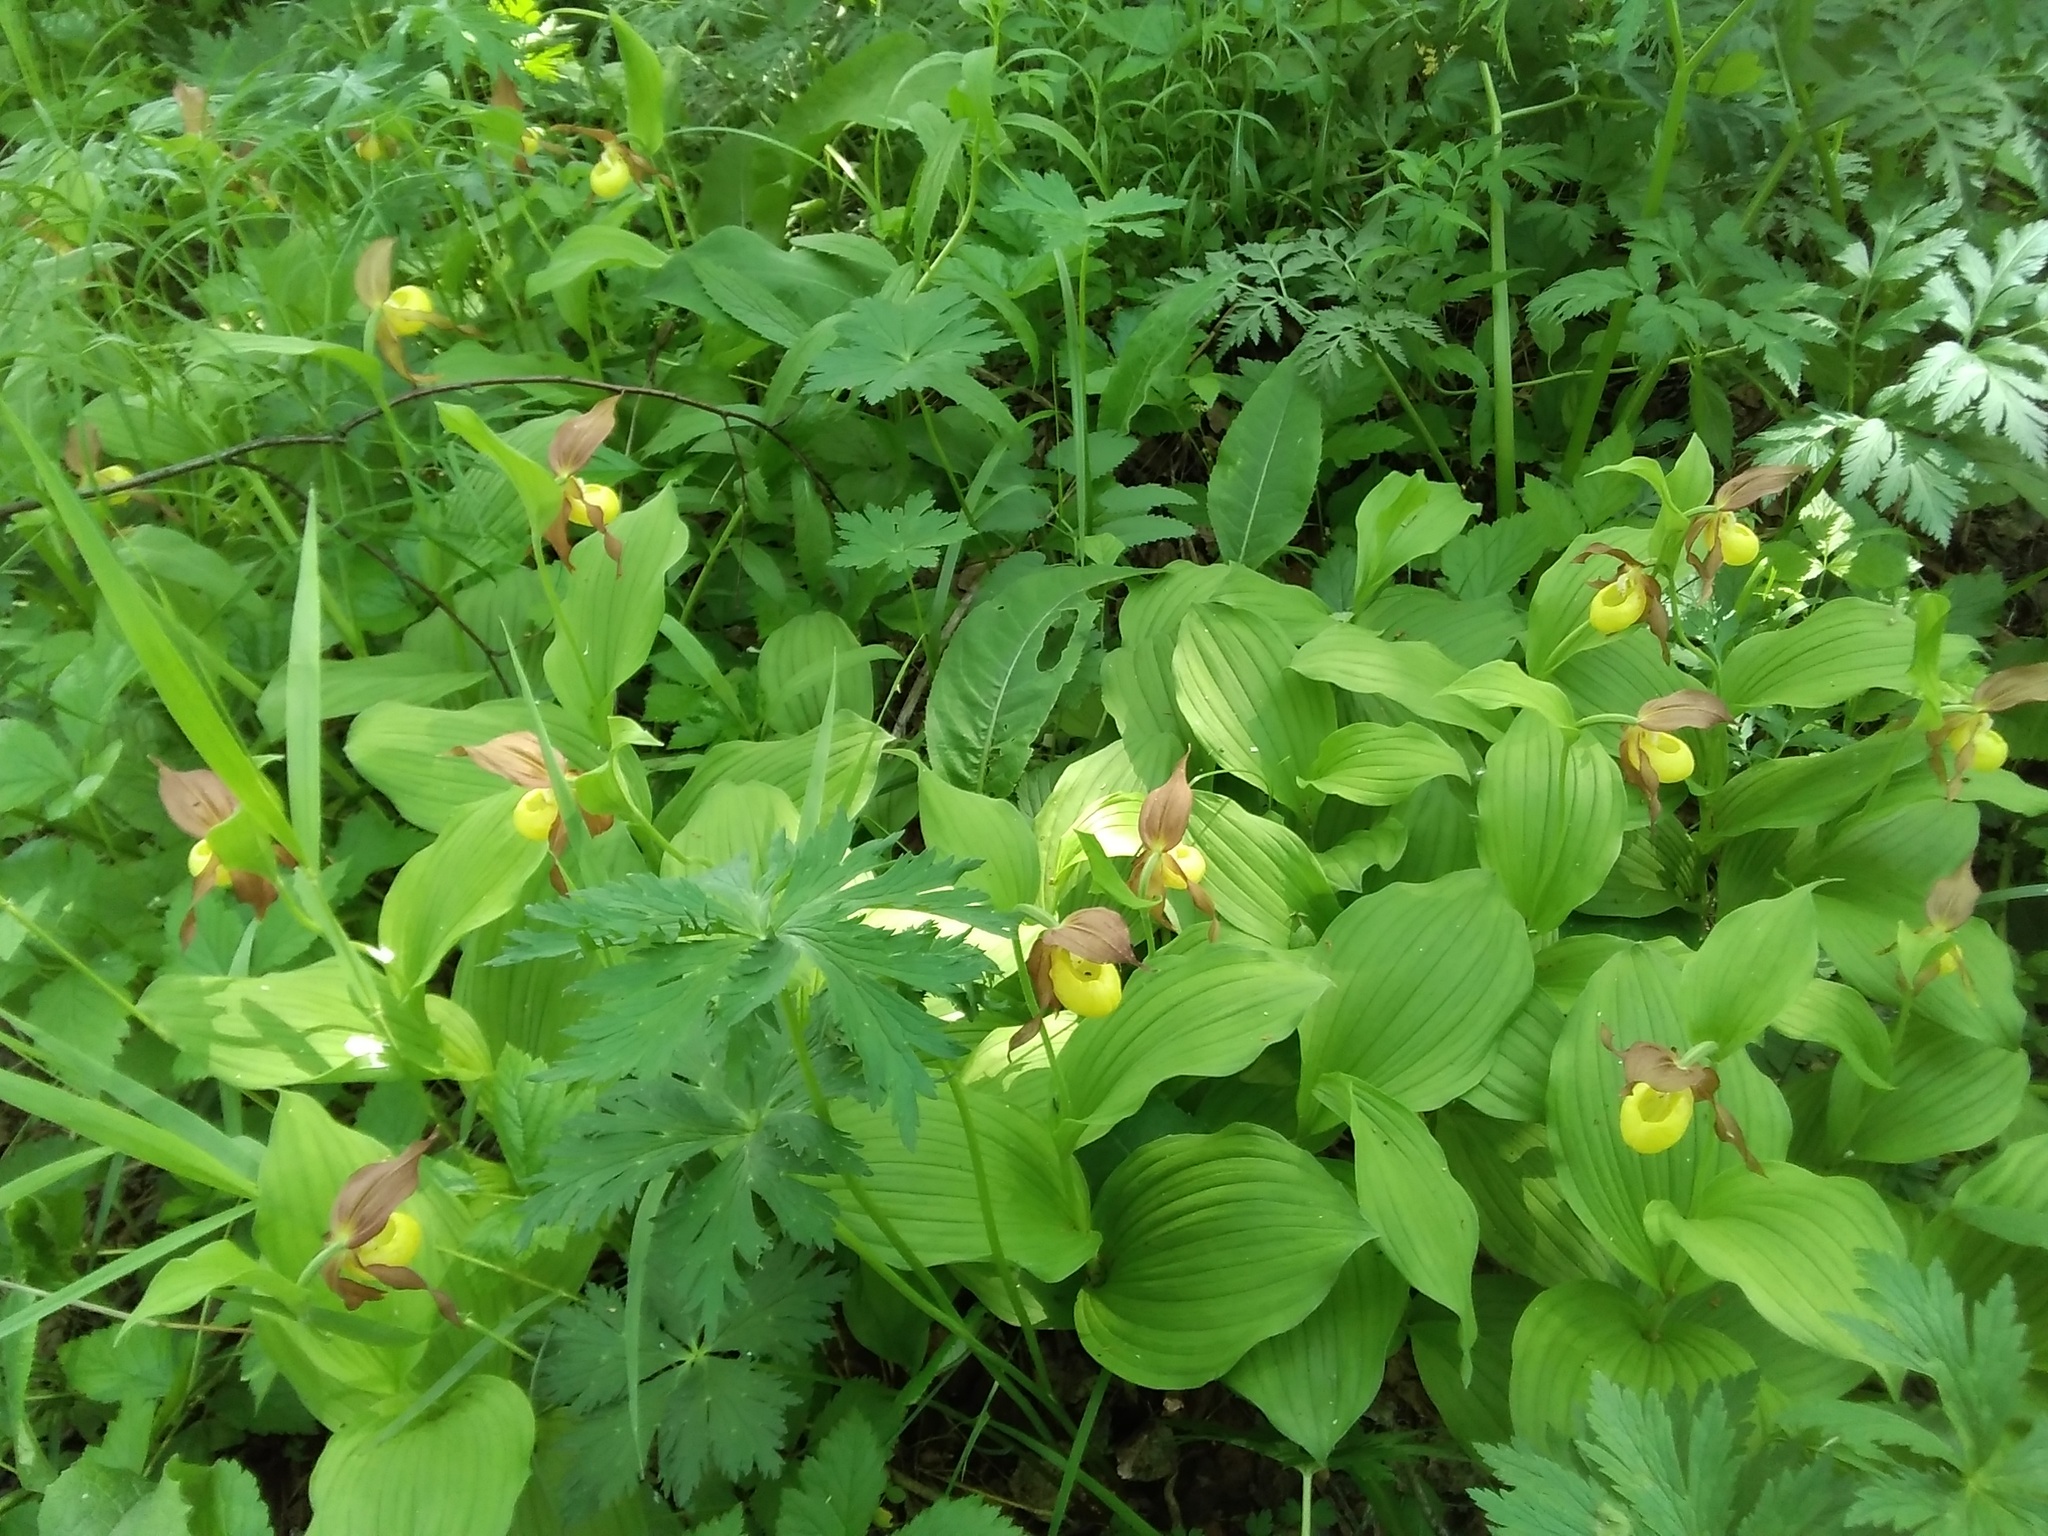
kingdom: Plantae
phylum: Tracheophyta
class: Liliopsida
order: Asparagales
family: Orchidaceae
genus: Cypripedium
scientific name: Cypripedium calceolus
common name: Lady's-slipper
